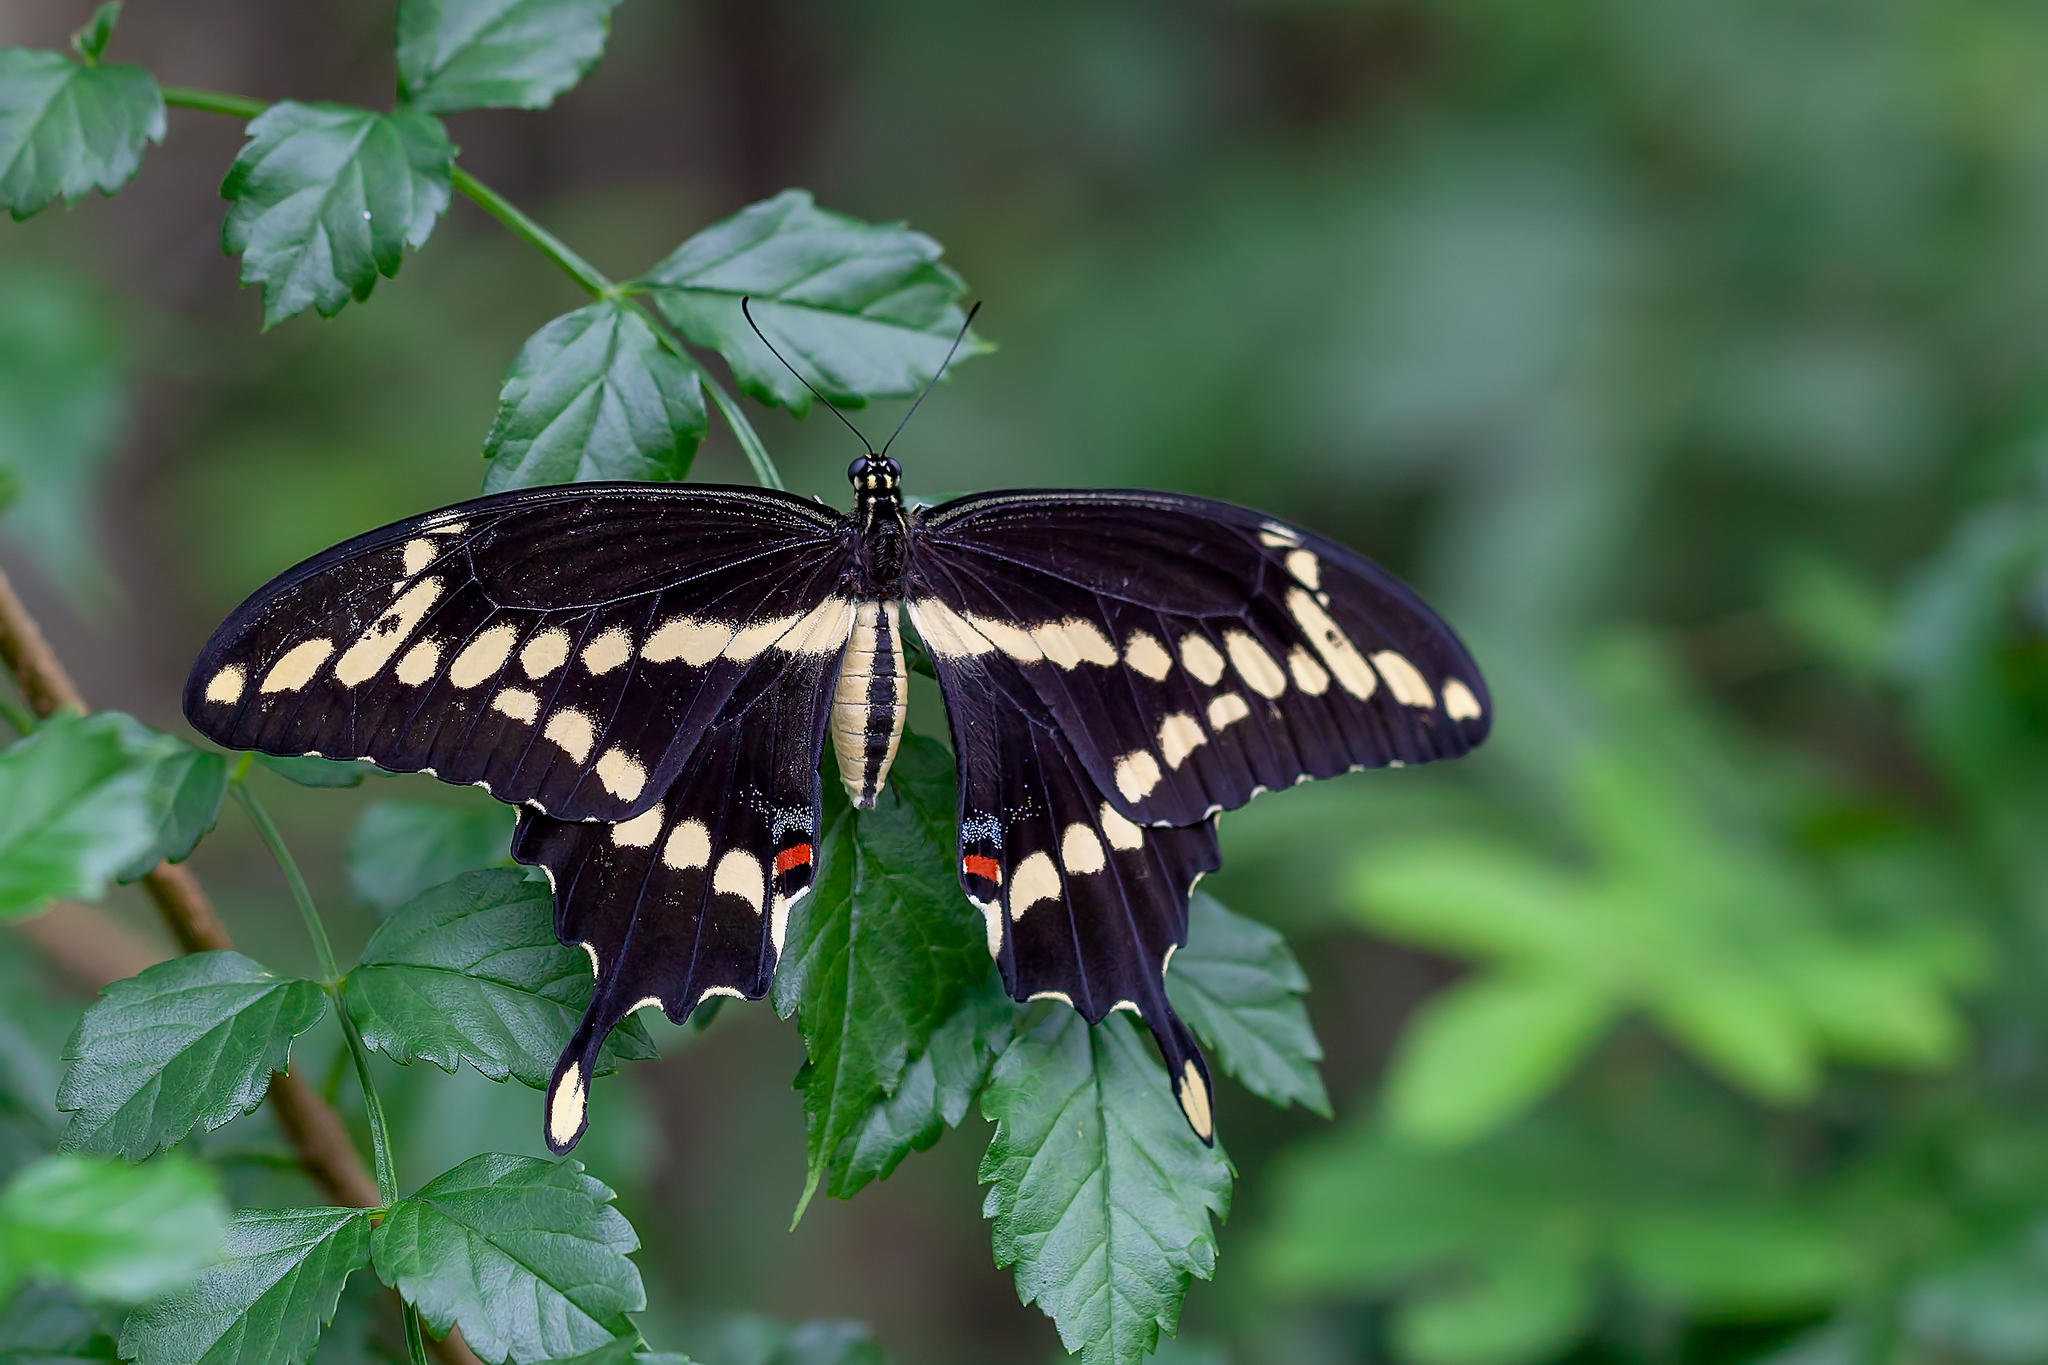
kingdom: Animalia
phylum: Arthropoda
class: Insecta
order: Lepidoptera
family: Papilionidae
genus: Papilio
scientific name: Papilio cresphontes
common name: Giant swallowtail
